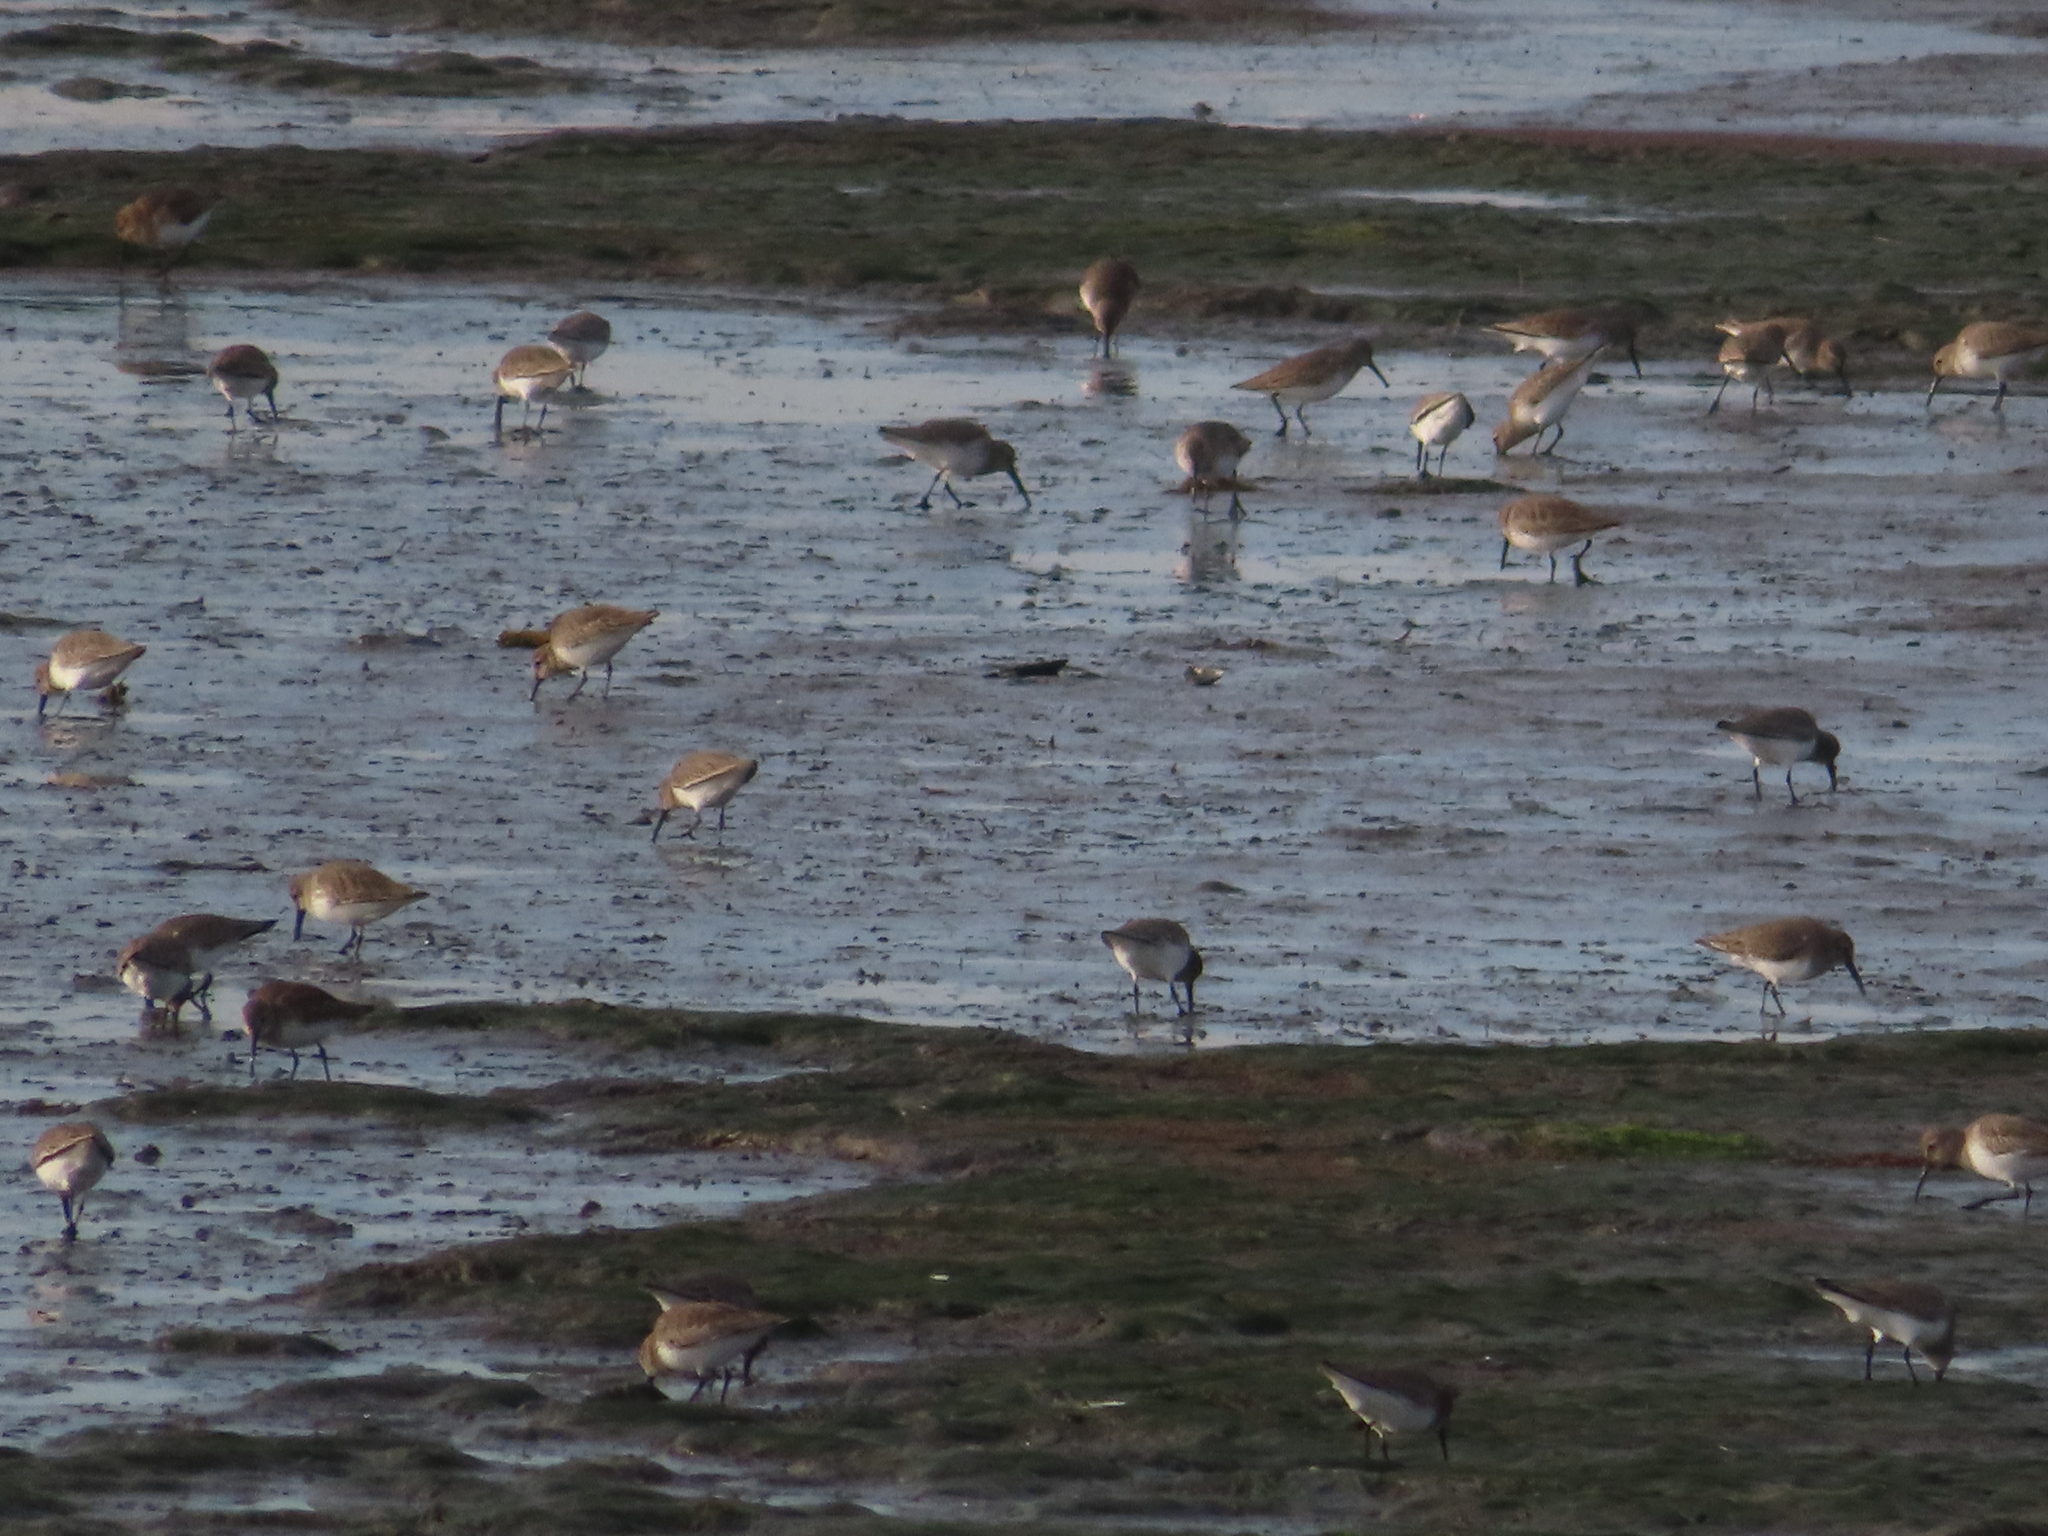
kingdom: Animalia
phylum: Chordata
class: Aves
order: Charadriiformes
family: Scolopacidae
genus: Calidris
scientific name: Calidris alpina
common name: Dunlin
